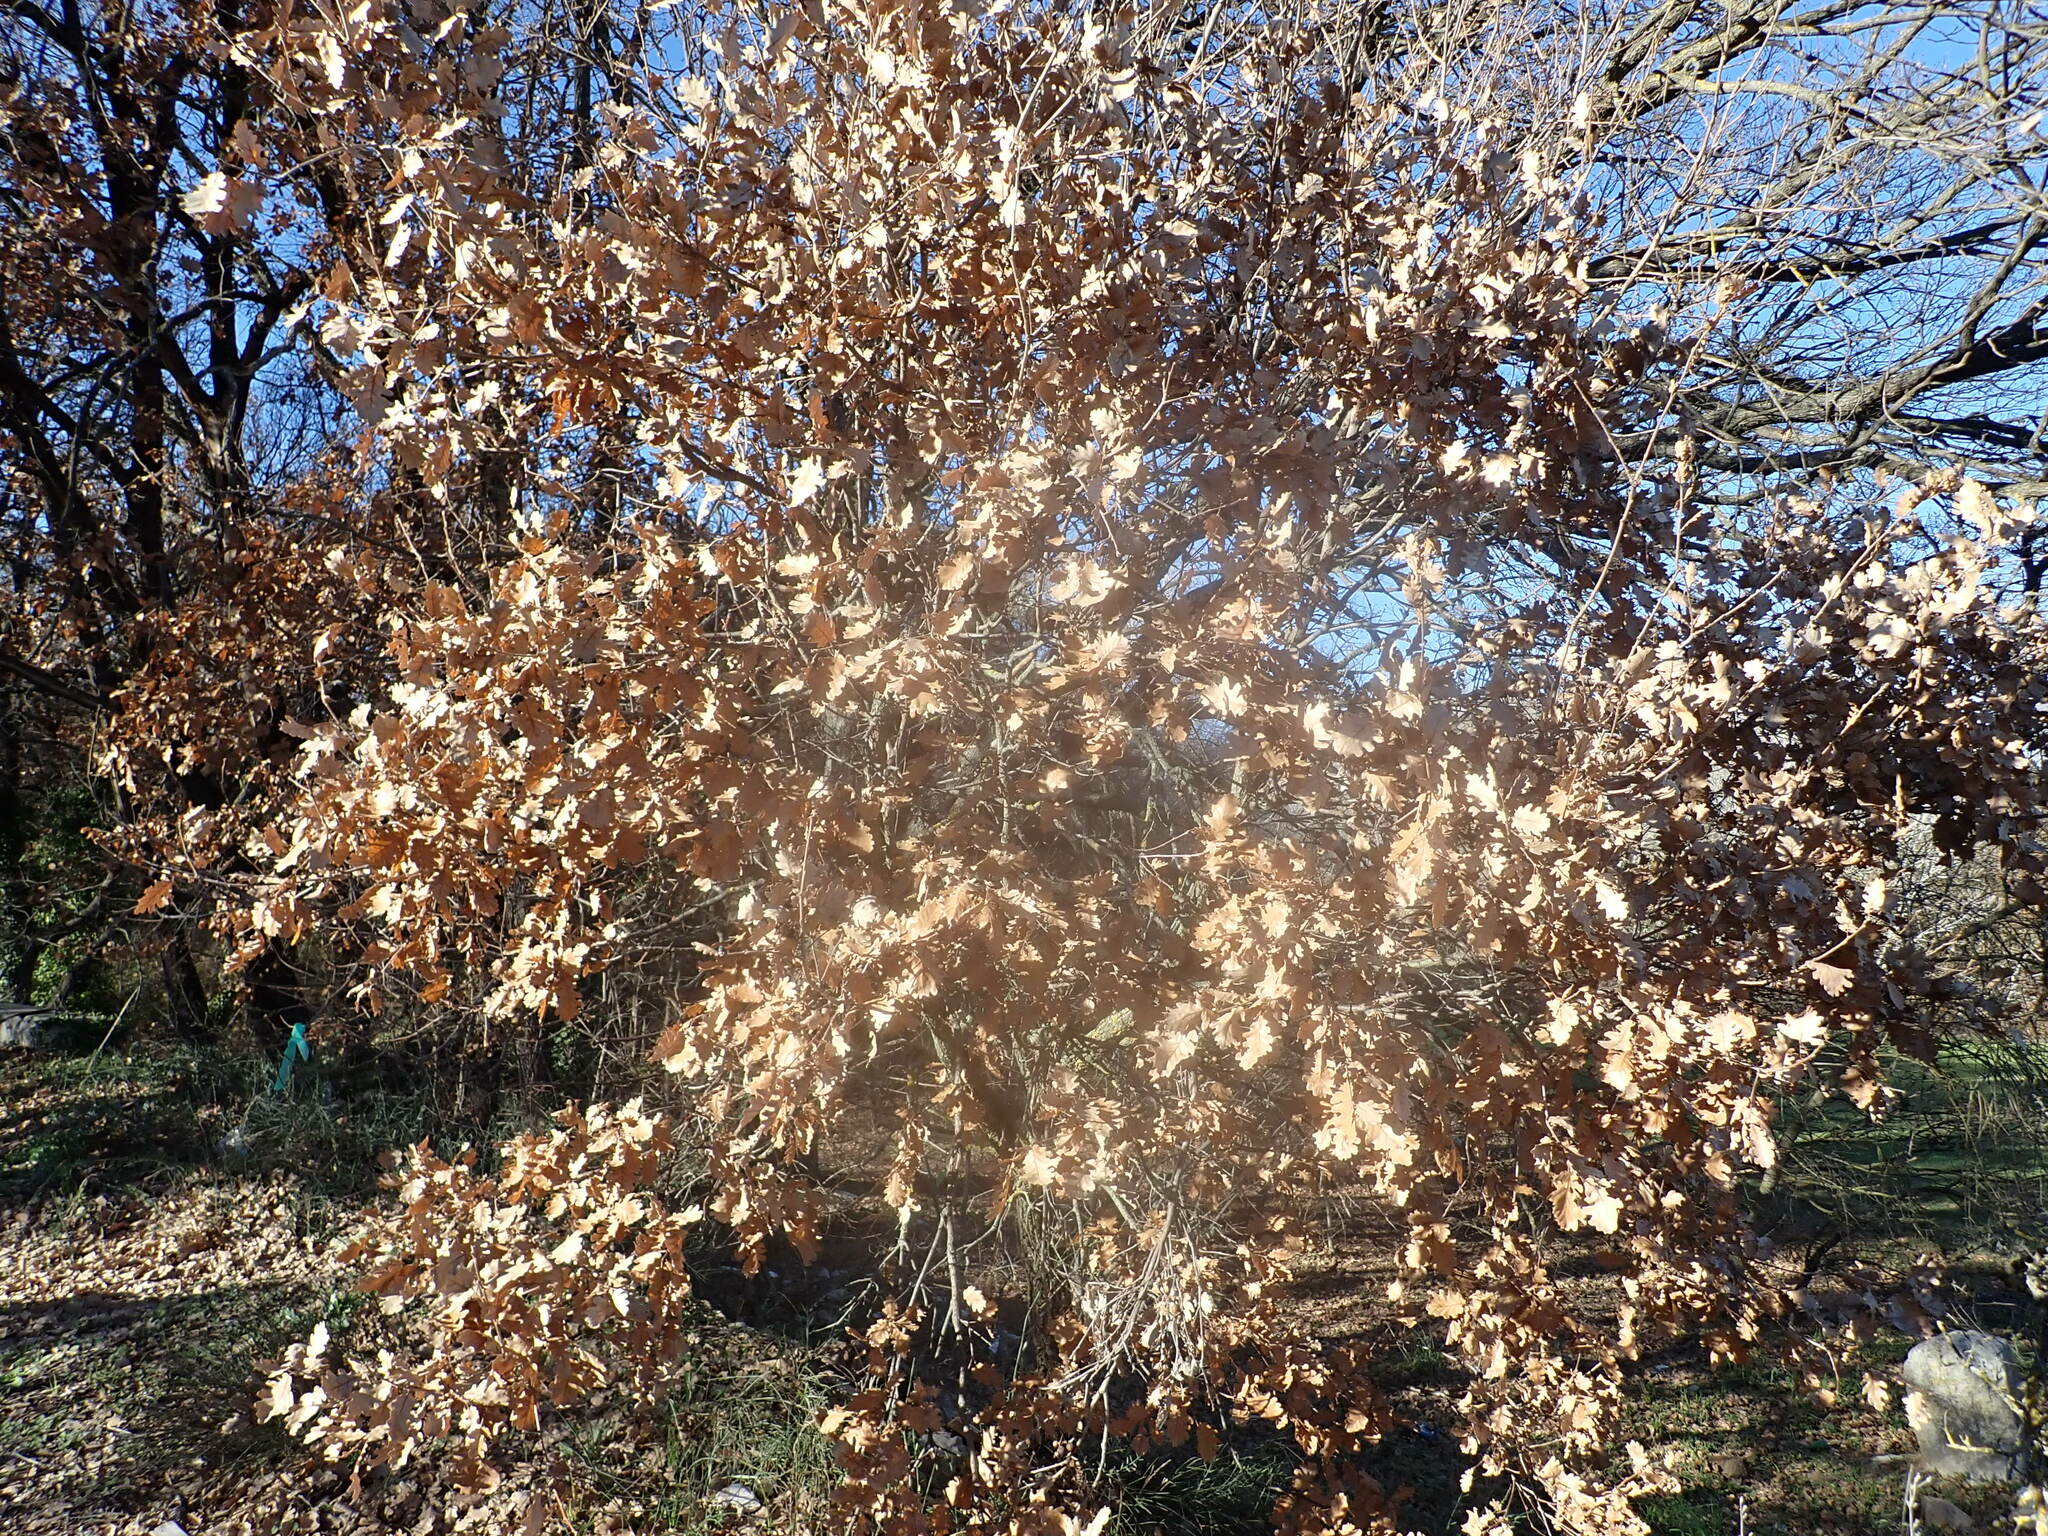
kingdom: Plantae
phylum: Tracheophyta
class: Magnoliopsida
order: Fagales
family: Fagaceae
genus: Quercus
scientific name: Quercus pubescens
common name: Downy oak
